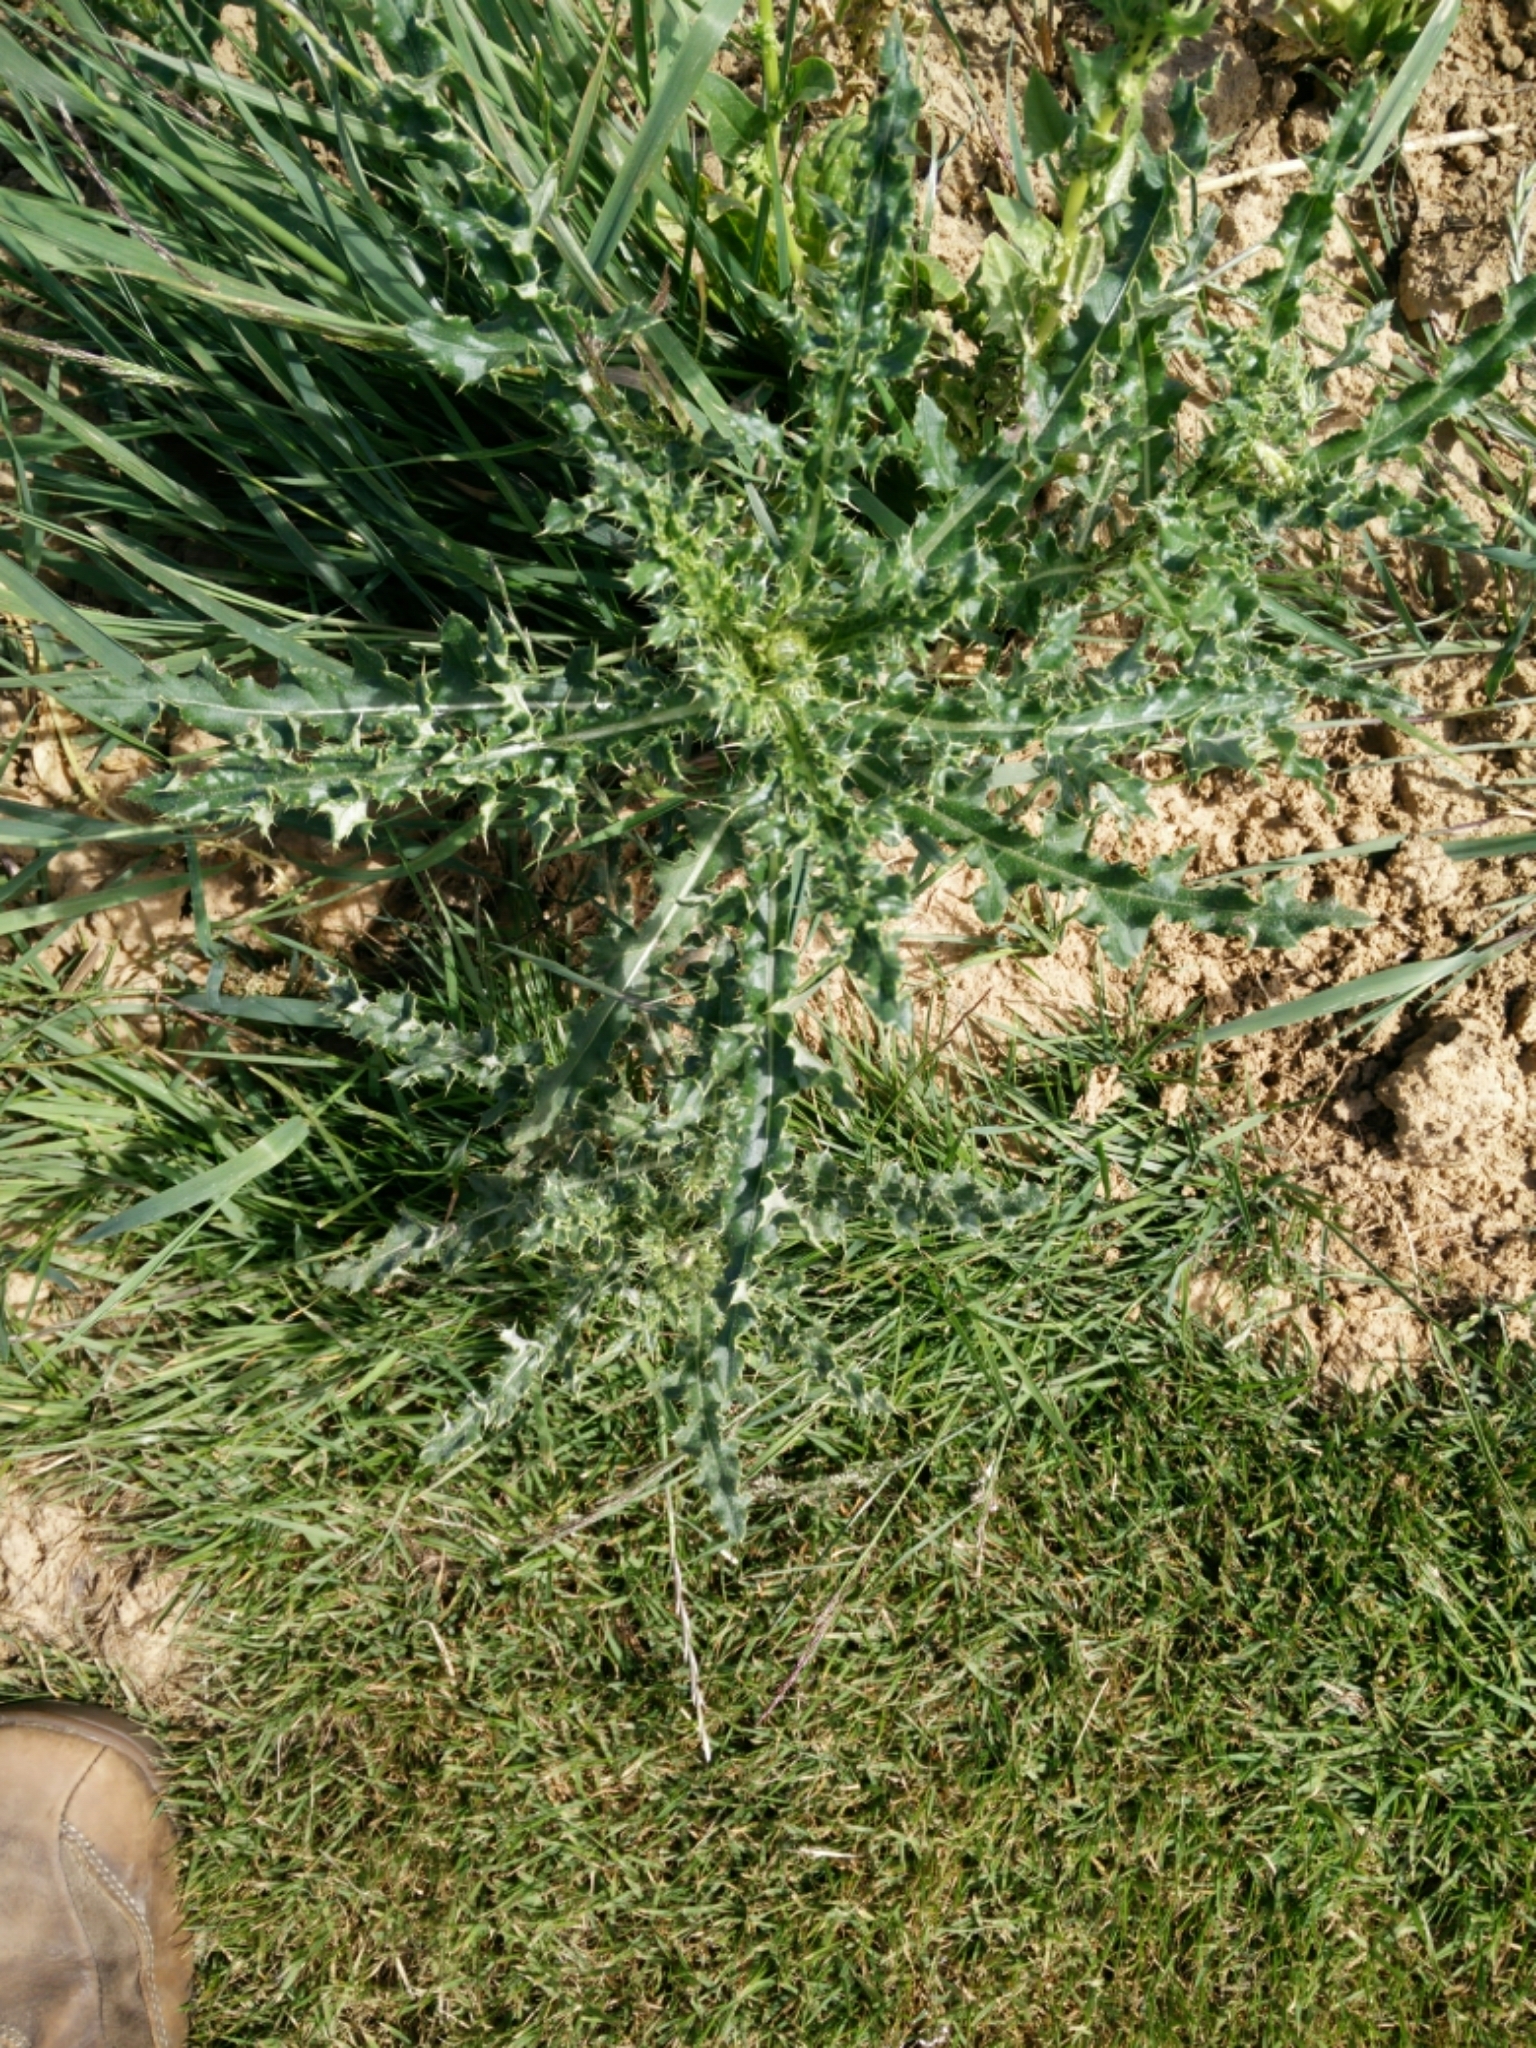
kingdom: Plantae
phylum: Tracheophyta
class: Magnoliopsida
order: Asterales
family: Asteraceae
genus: Cirsium
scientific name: Cirsium arvense
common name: Creeping thistle
